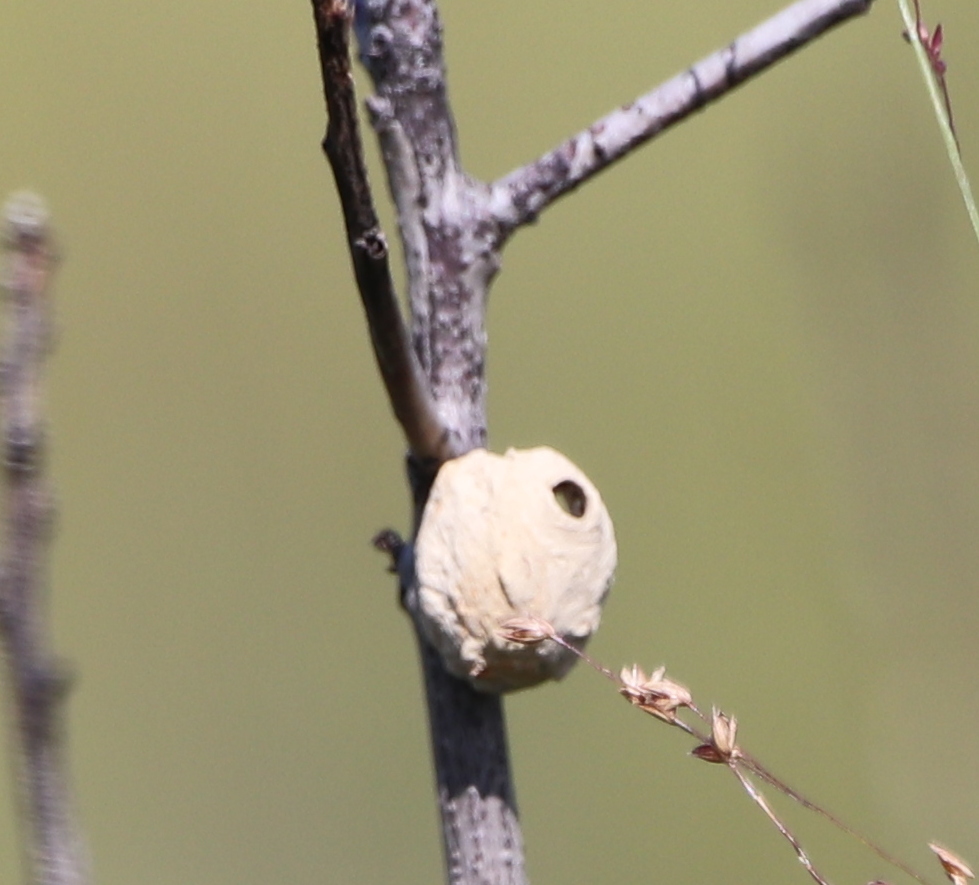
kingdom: Animalia
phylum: Arthropoda
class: Insecta
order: Hymenoptera
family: Vespidae
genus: Eumenes
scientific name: Eumenes
